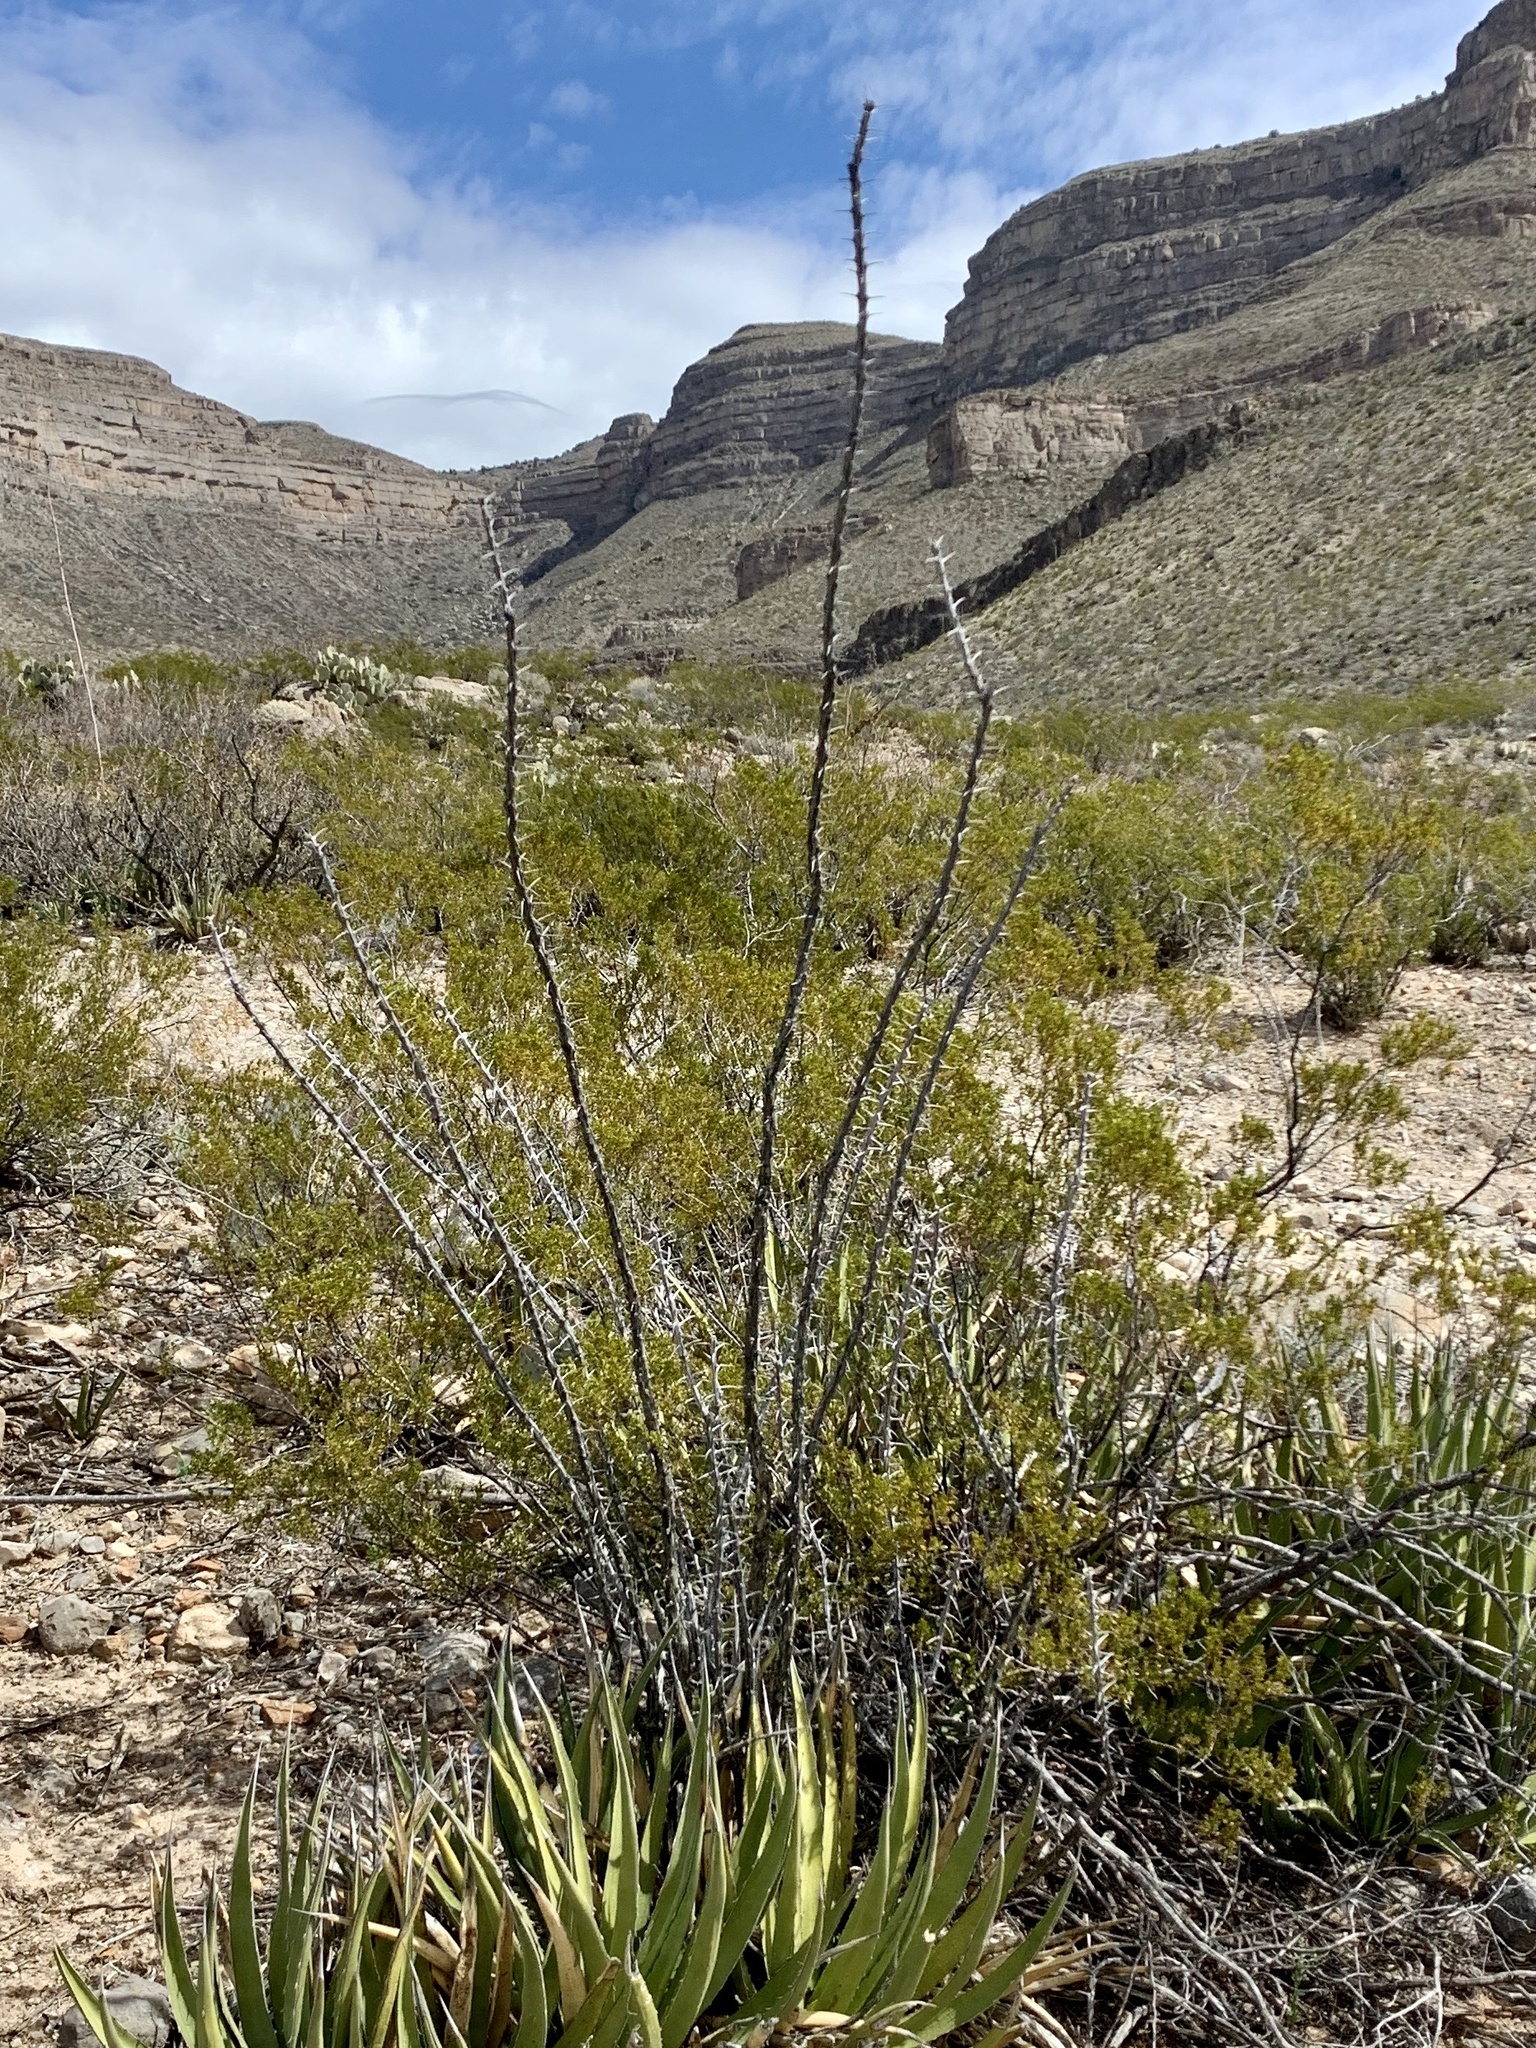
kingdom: Plantae
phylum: Tracheophyta
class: Magnoliopsida
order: Ericales
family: Fouquieriaceae
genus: Fouquieria
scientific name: Fouquieria splendens
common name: Vine-cactus
